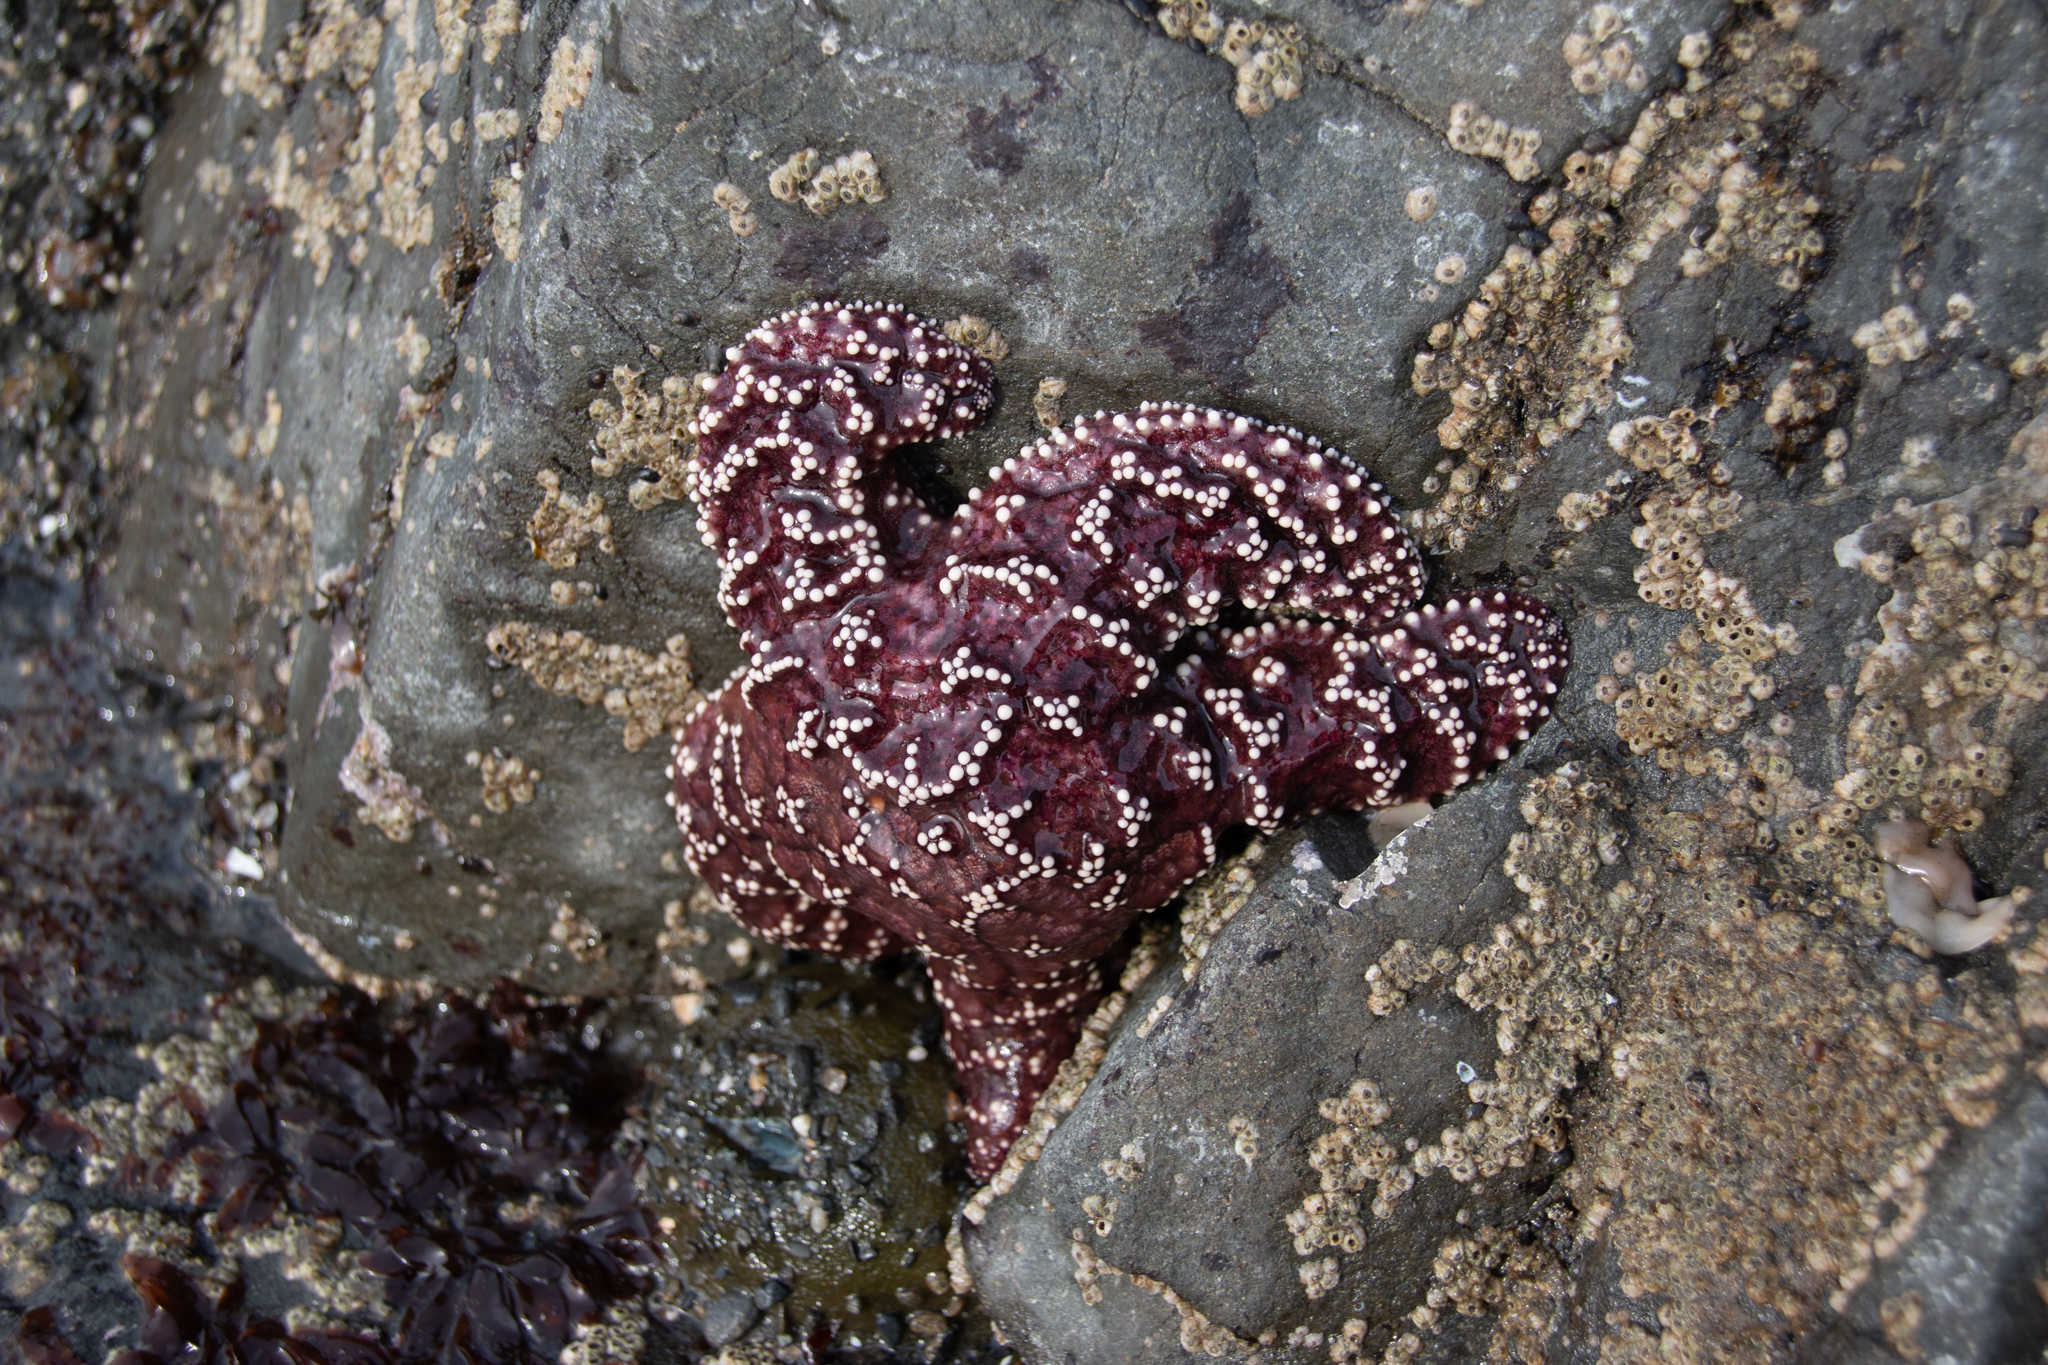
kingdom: Animalia
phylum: Echinodermata
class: Asteroidea
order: Forcipulatida
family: Asteriidae
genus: Pisaster
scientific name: Pisaster ochraceus
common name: Ochre stars
